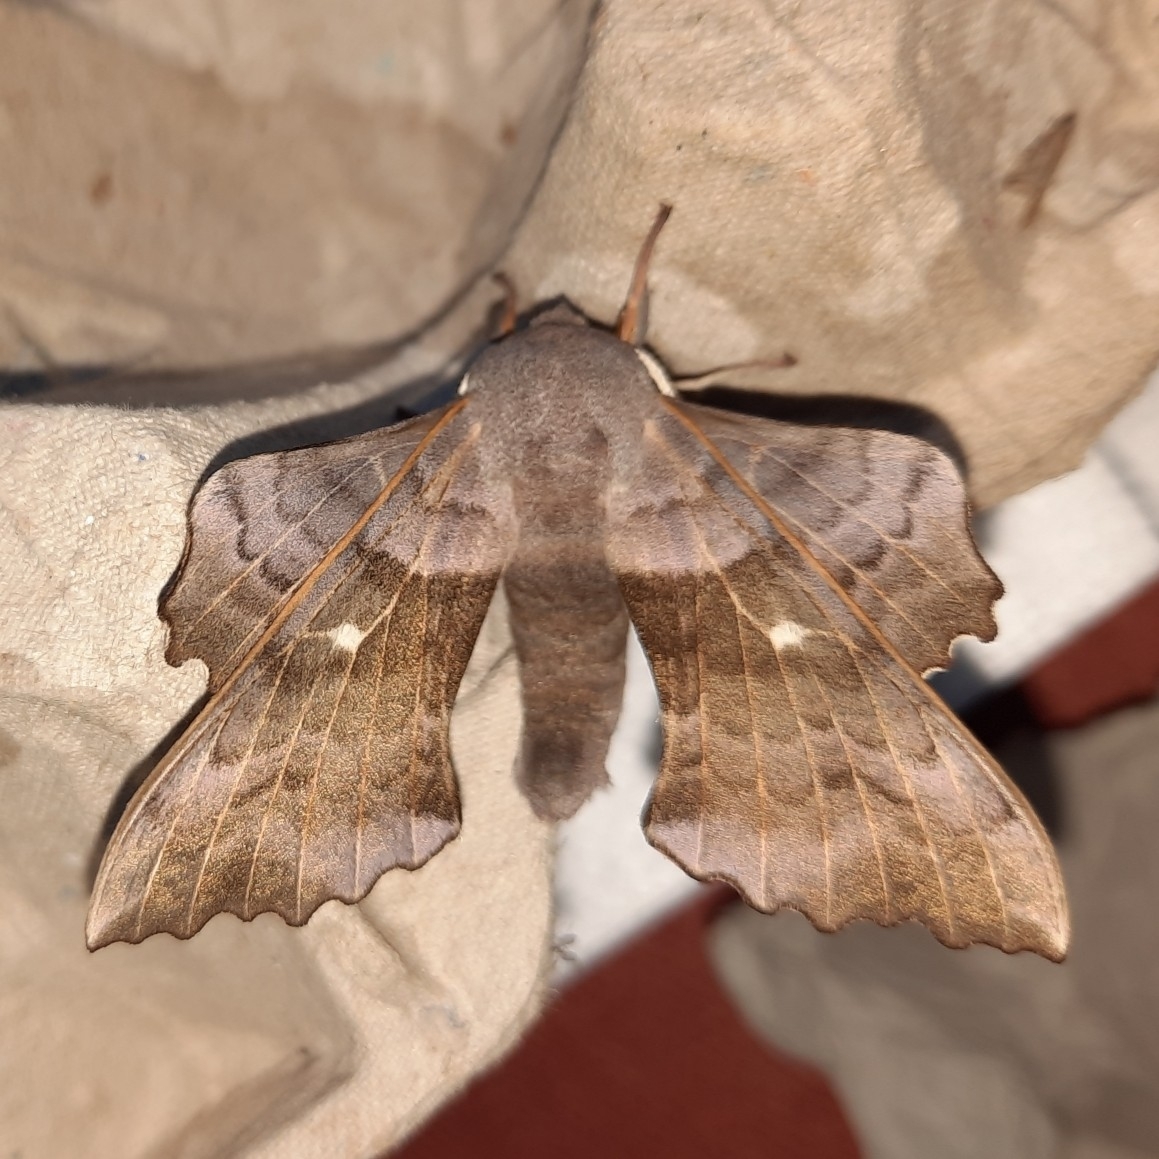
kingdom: Animalia
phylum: Arthropoda
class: Insecta
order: Lepidoptera
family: Sphingidae
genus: Laothoe
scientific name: Laothoe populi
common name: Poplar hawk-moth
